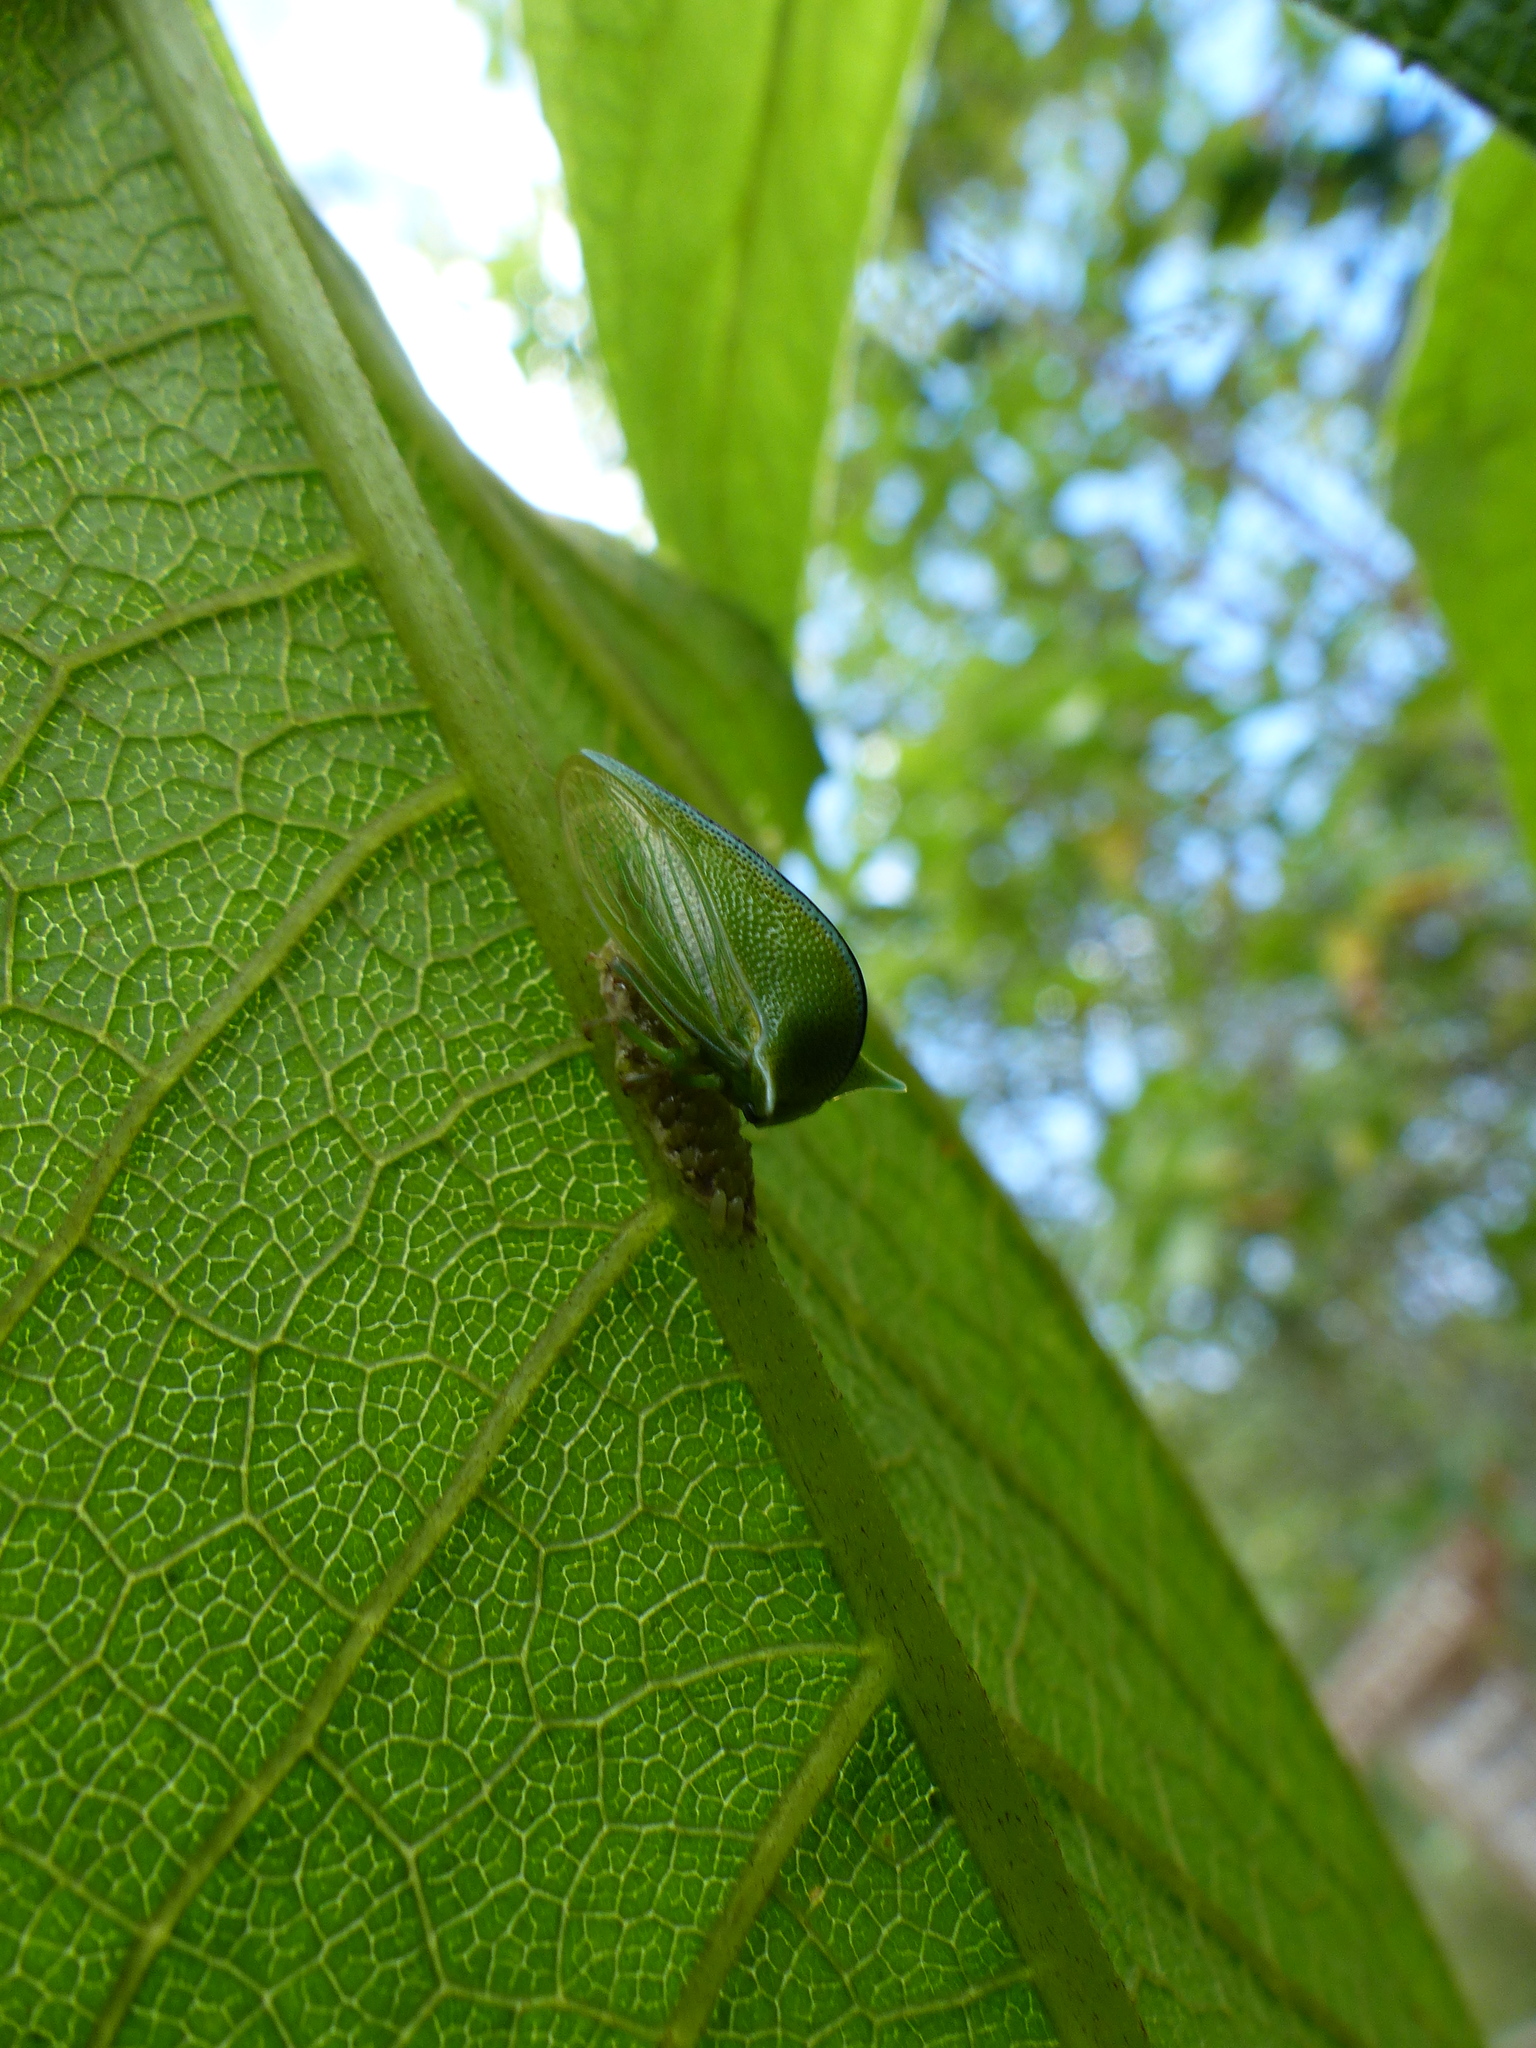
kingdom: Animalia
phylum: Arthropoda
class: Insecta
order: Hemiptera
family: Membracidae
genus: Alchisme
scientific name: Alchisme inermis
